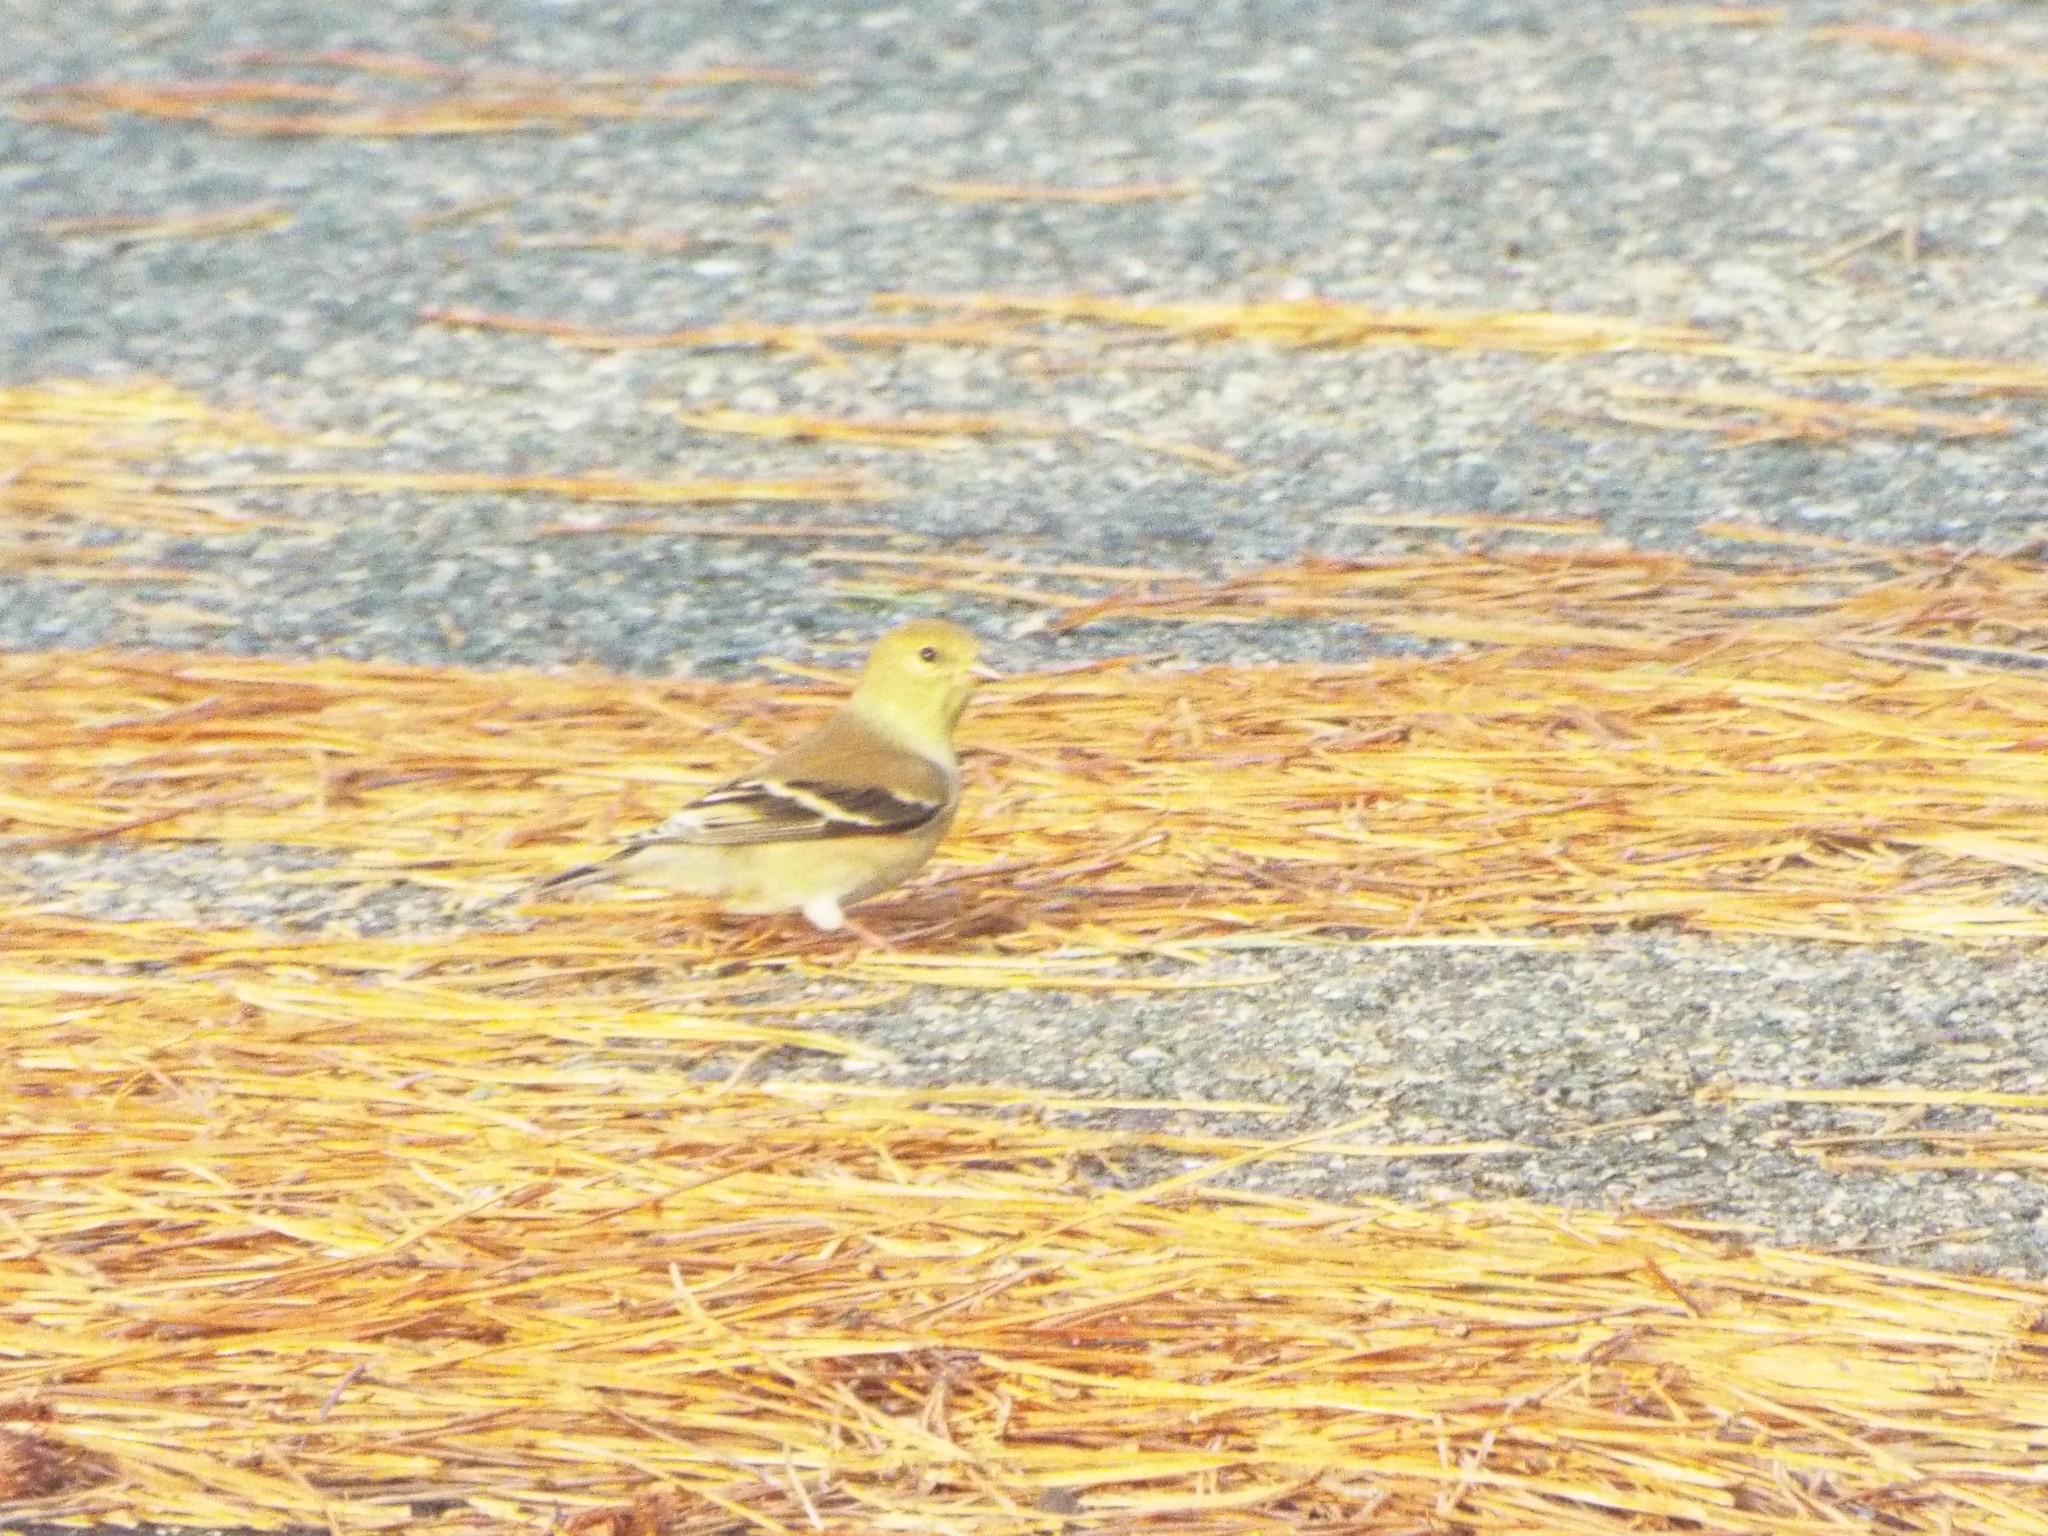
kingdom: Animalia
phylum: Chordata
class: Aves
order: Passeriformes
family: Fringillidae
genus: Spinus
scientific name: Spinus tristis
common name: American goldfinch
